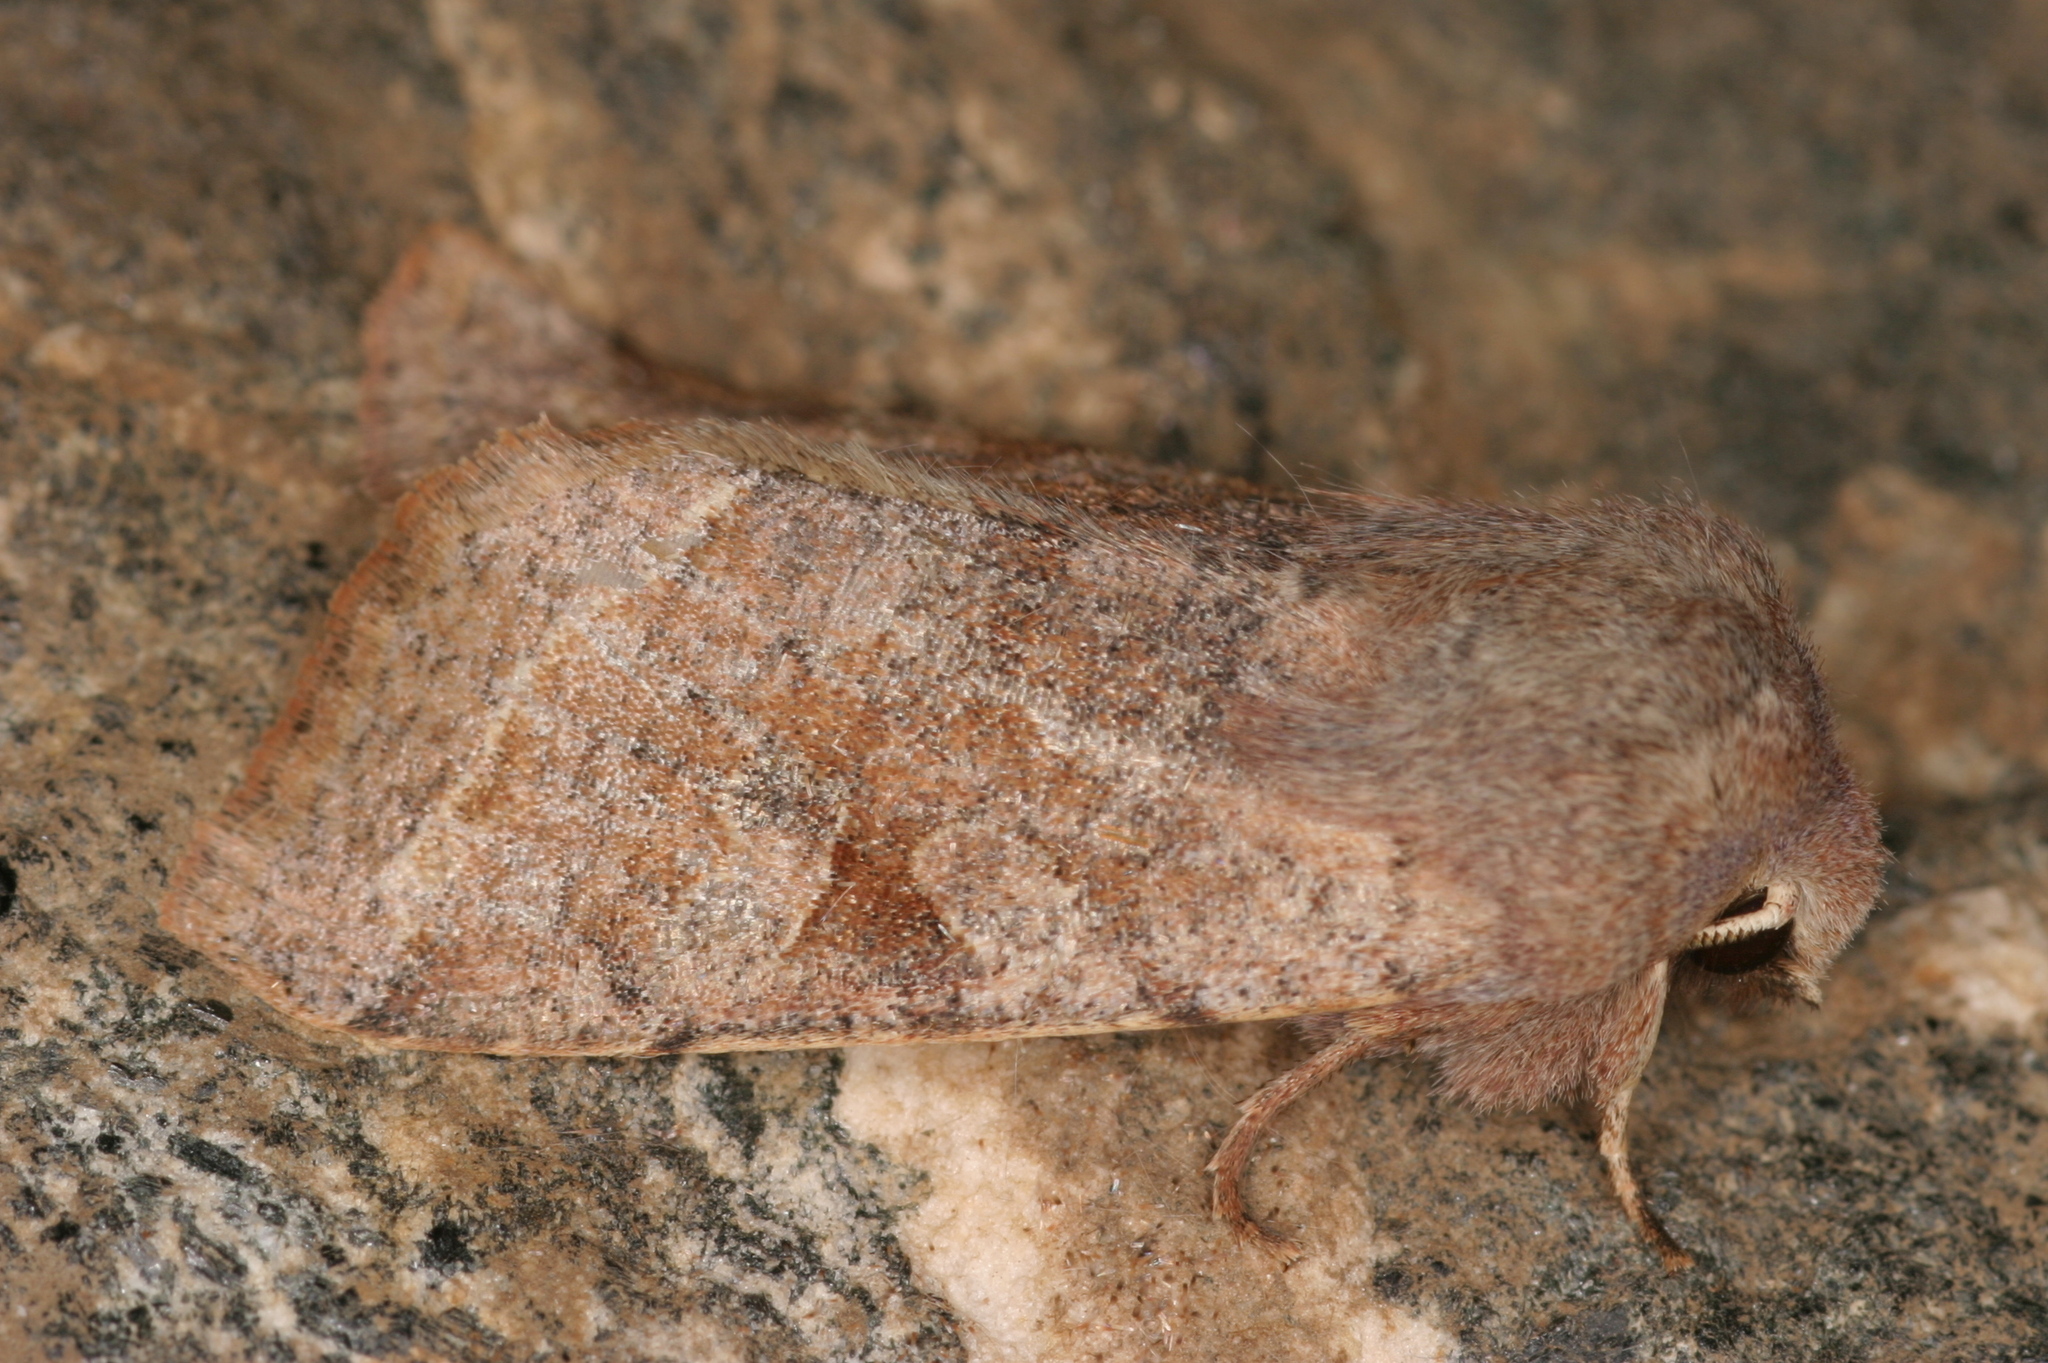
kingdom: Animalia
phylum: Arthropoda
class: Insecta
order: Lepidoptera
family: Noctuidae
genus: Orthosia
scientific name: Orthosia incerta
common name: Clouded drab
